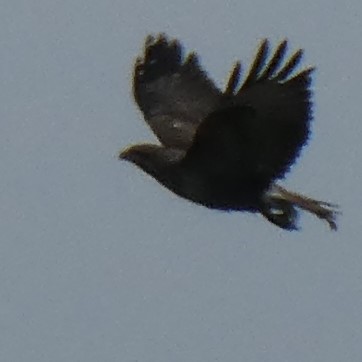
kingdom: Animalia
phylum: Chordata
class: Aves
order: Accipitriformes
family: Accipitridae
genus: Buteo
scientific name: Buteo buteo
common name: Common buzzard
